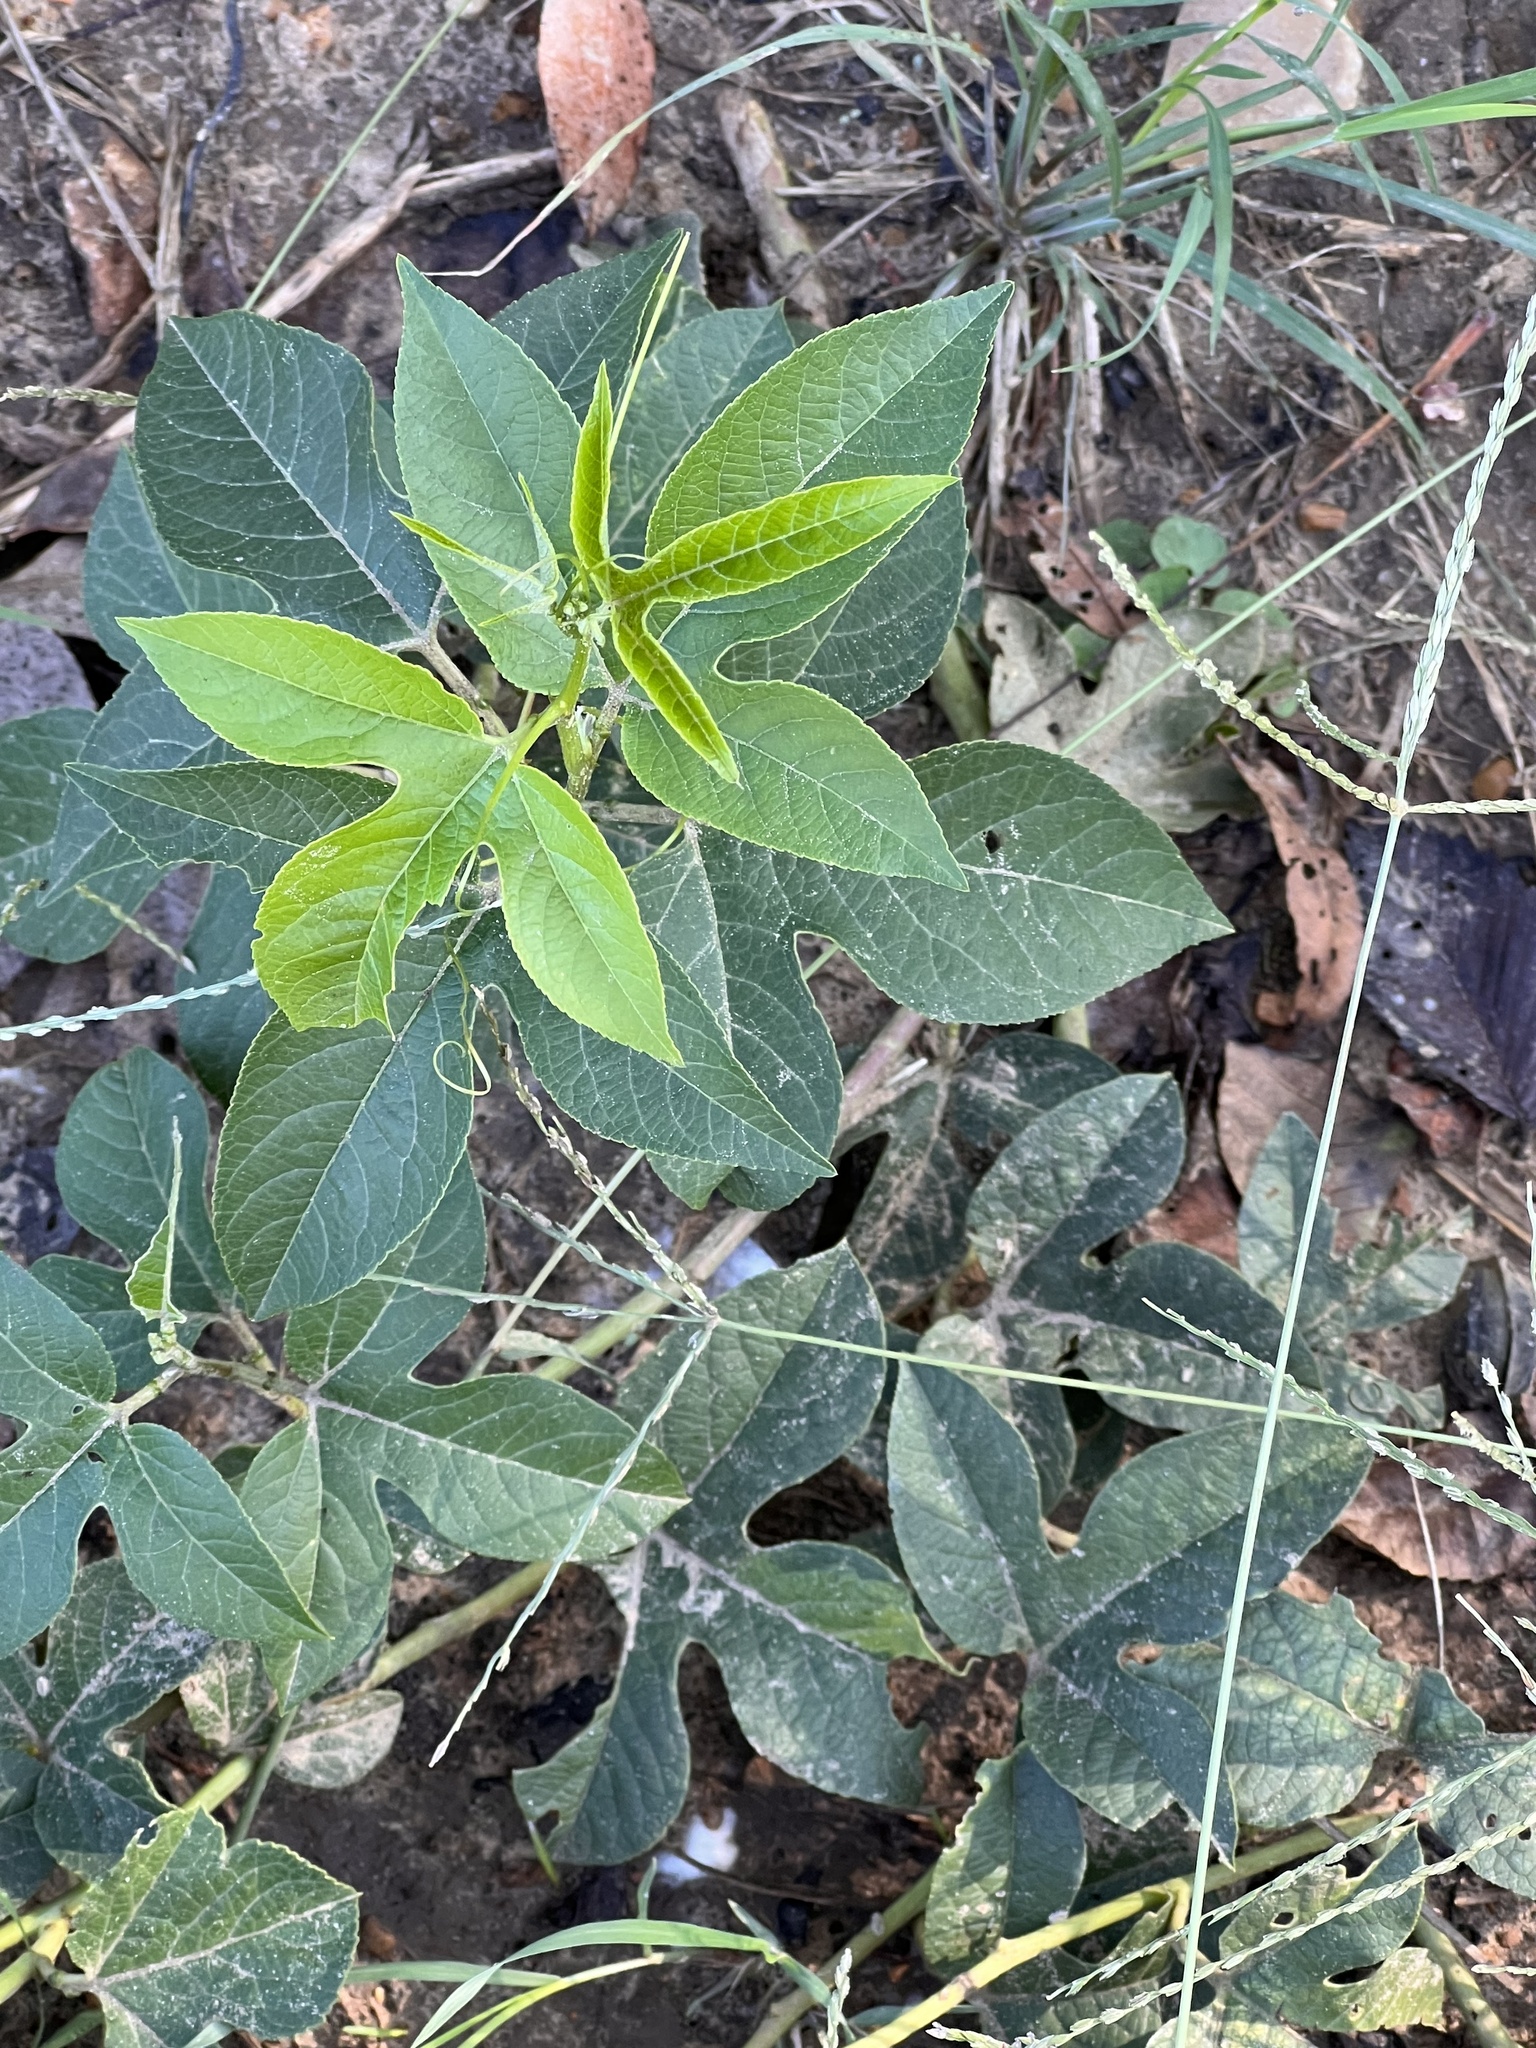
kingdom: Plantae
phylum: Tracheophyta
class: Magnoliopsida
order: Malpighiales
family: Passifloraceae
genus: Passiflora
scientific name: Passiflora incarnata
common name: Apricot-vine
